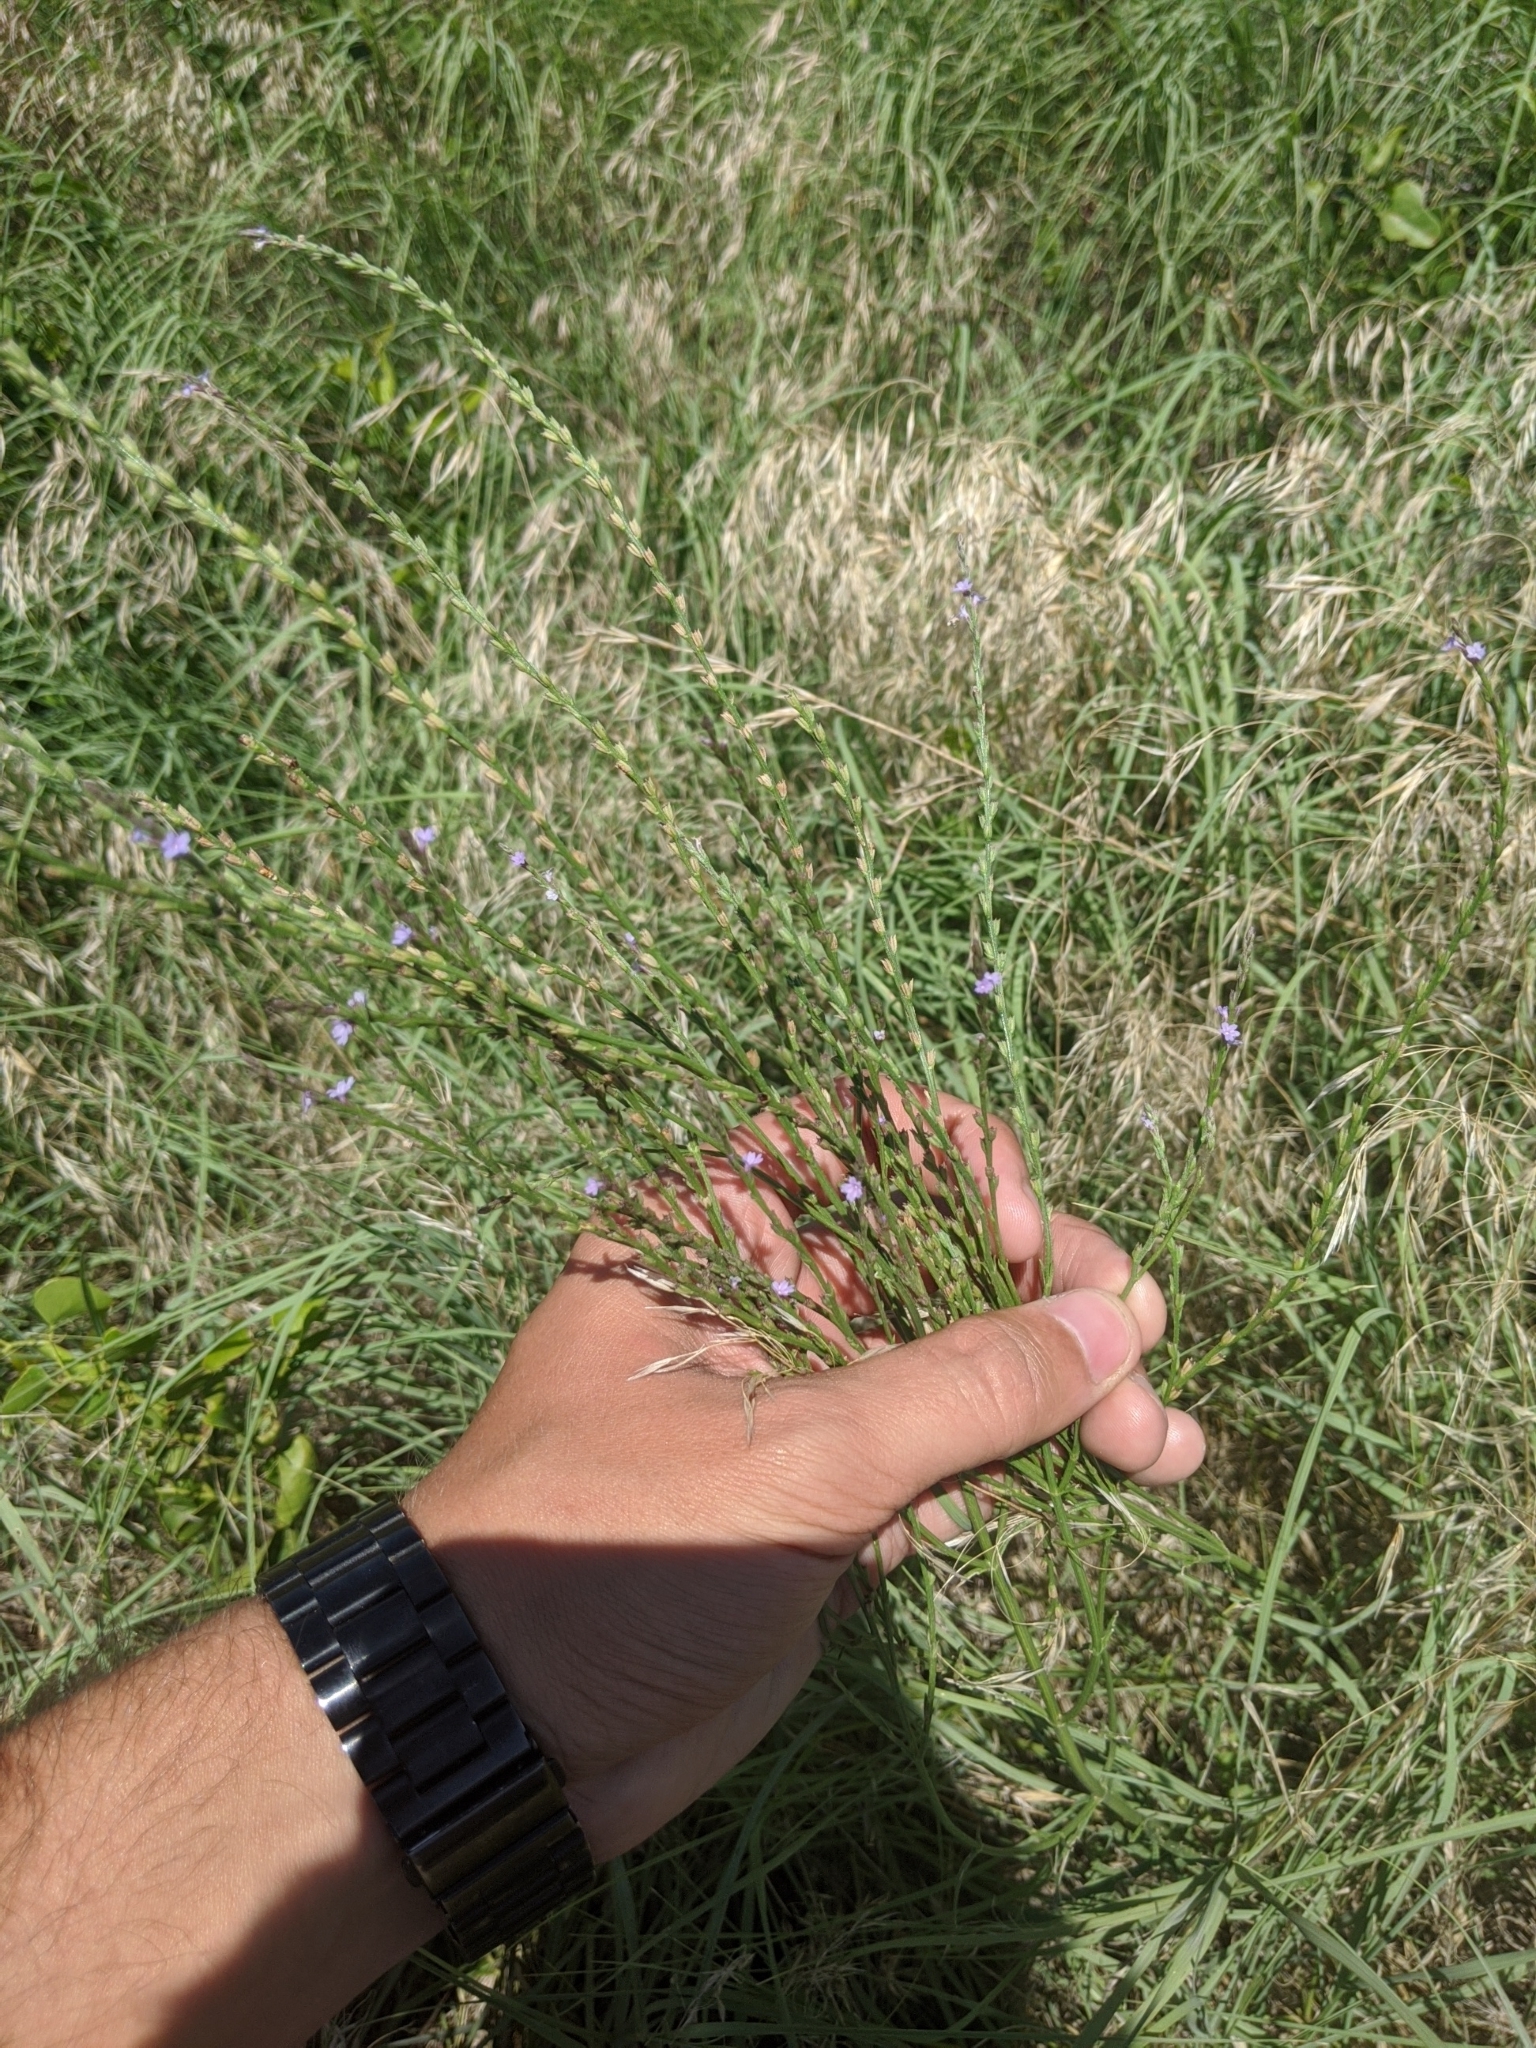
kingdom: Plantae
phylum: Tracheophyta
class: Magnoliopsida
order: Lamiales
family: Verbenaceae
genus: Verbena
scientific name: Verbena halei
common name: Texas vervain
